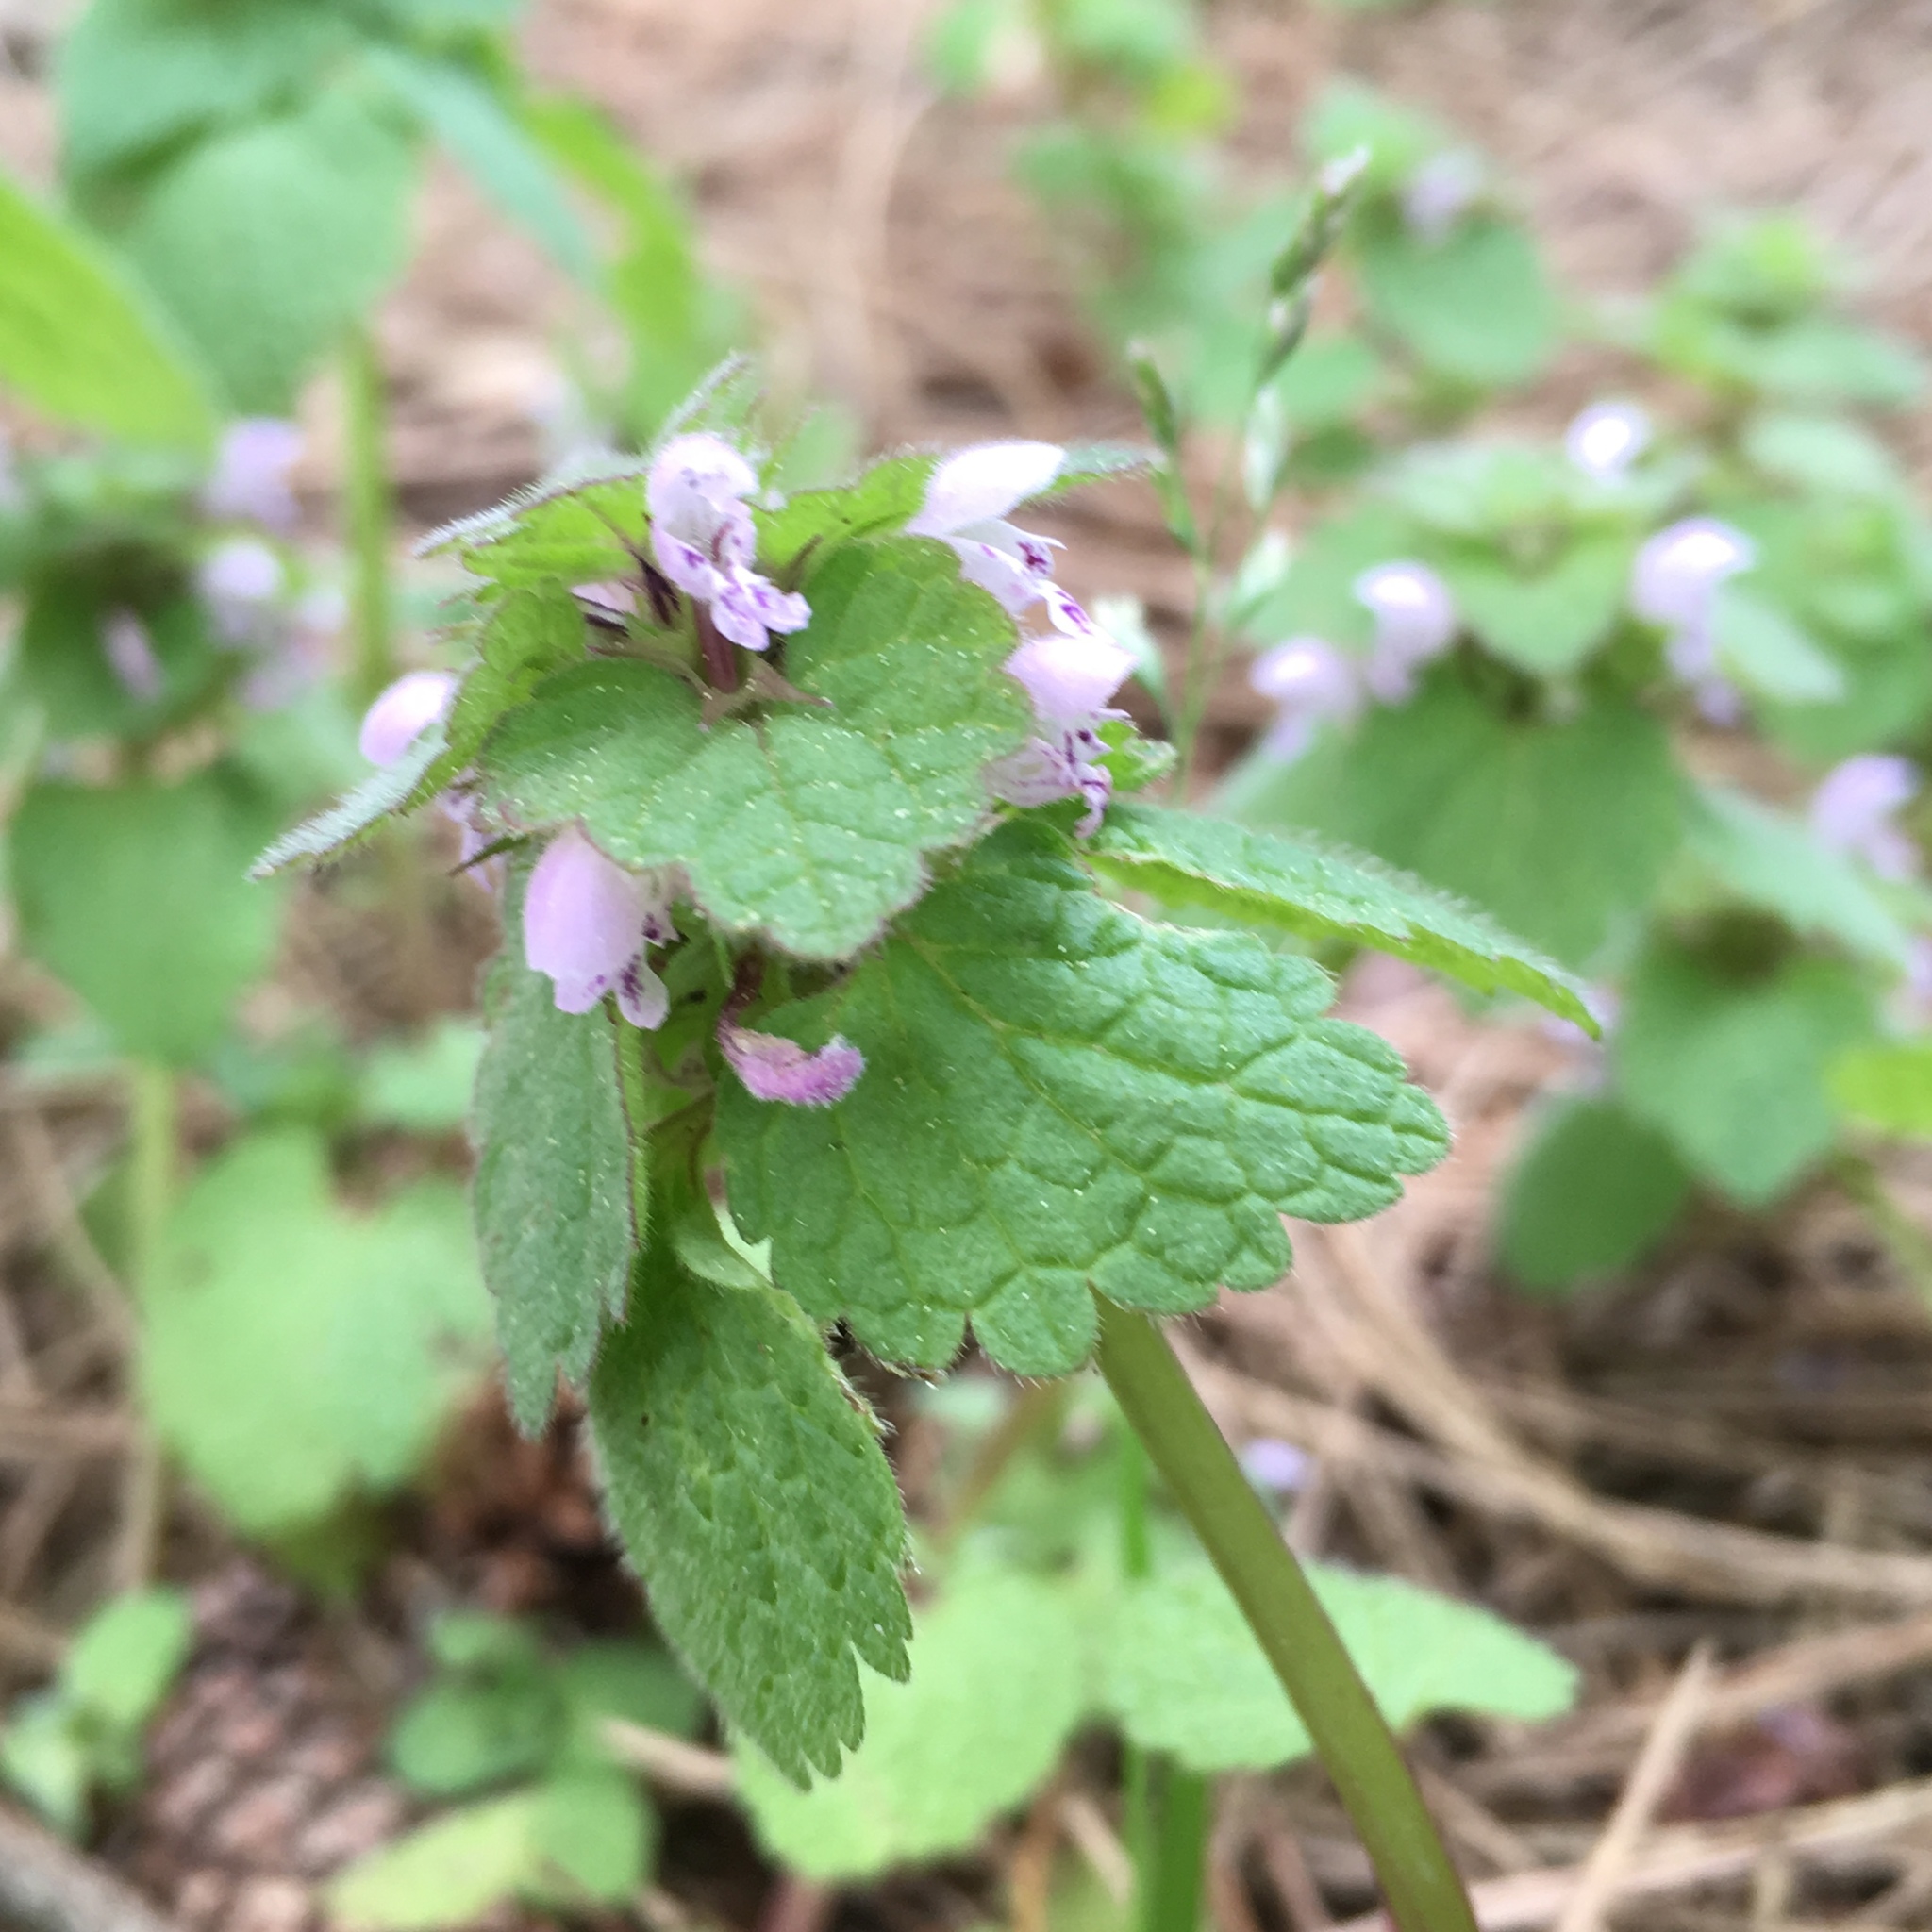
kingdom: Plantae
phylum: Tracheophyta
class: Magnoliopsida
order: Lamiales
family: Lamiaceae
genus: Lamium
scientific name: Lamium purpureum
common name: Red dead-nettle
